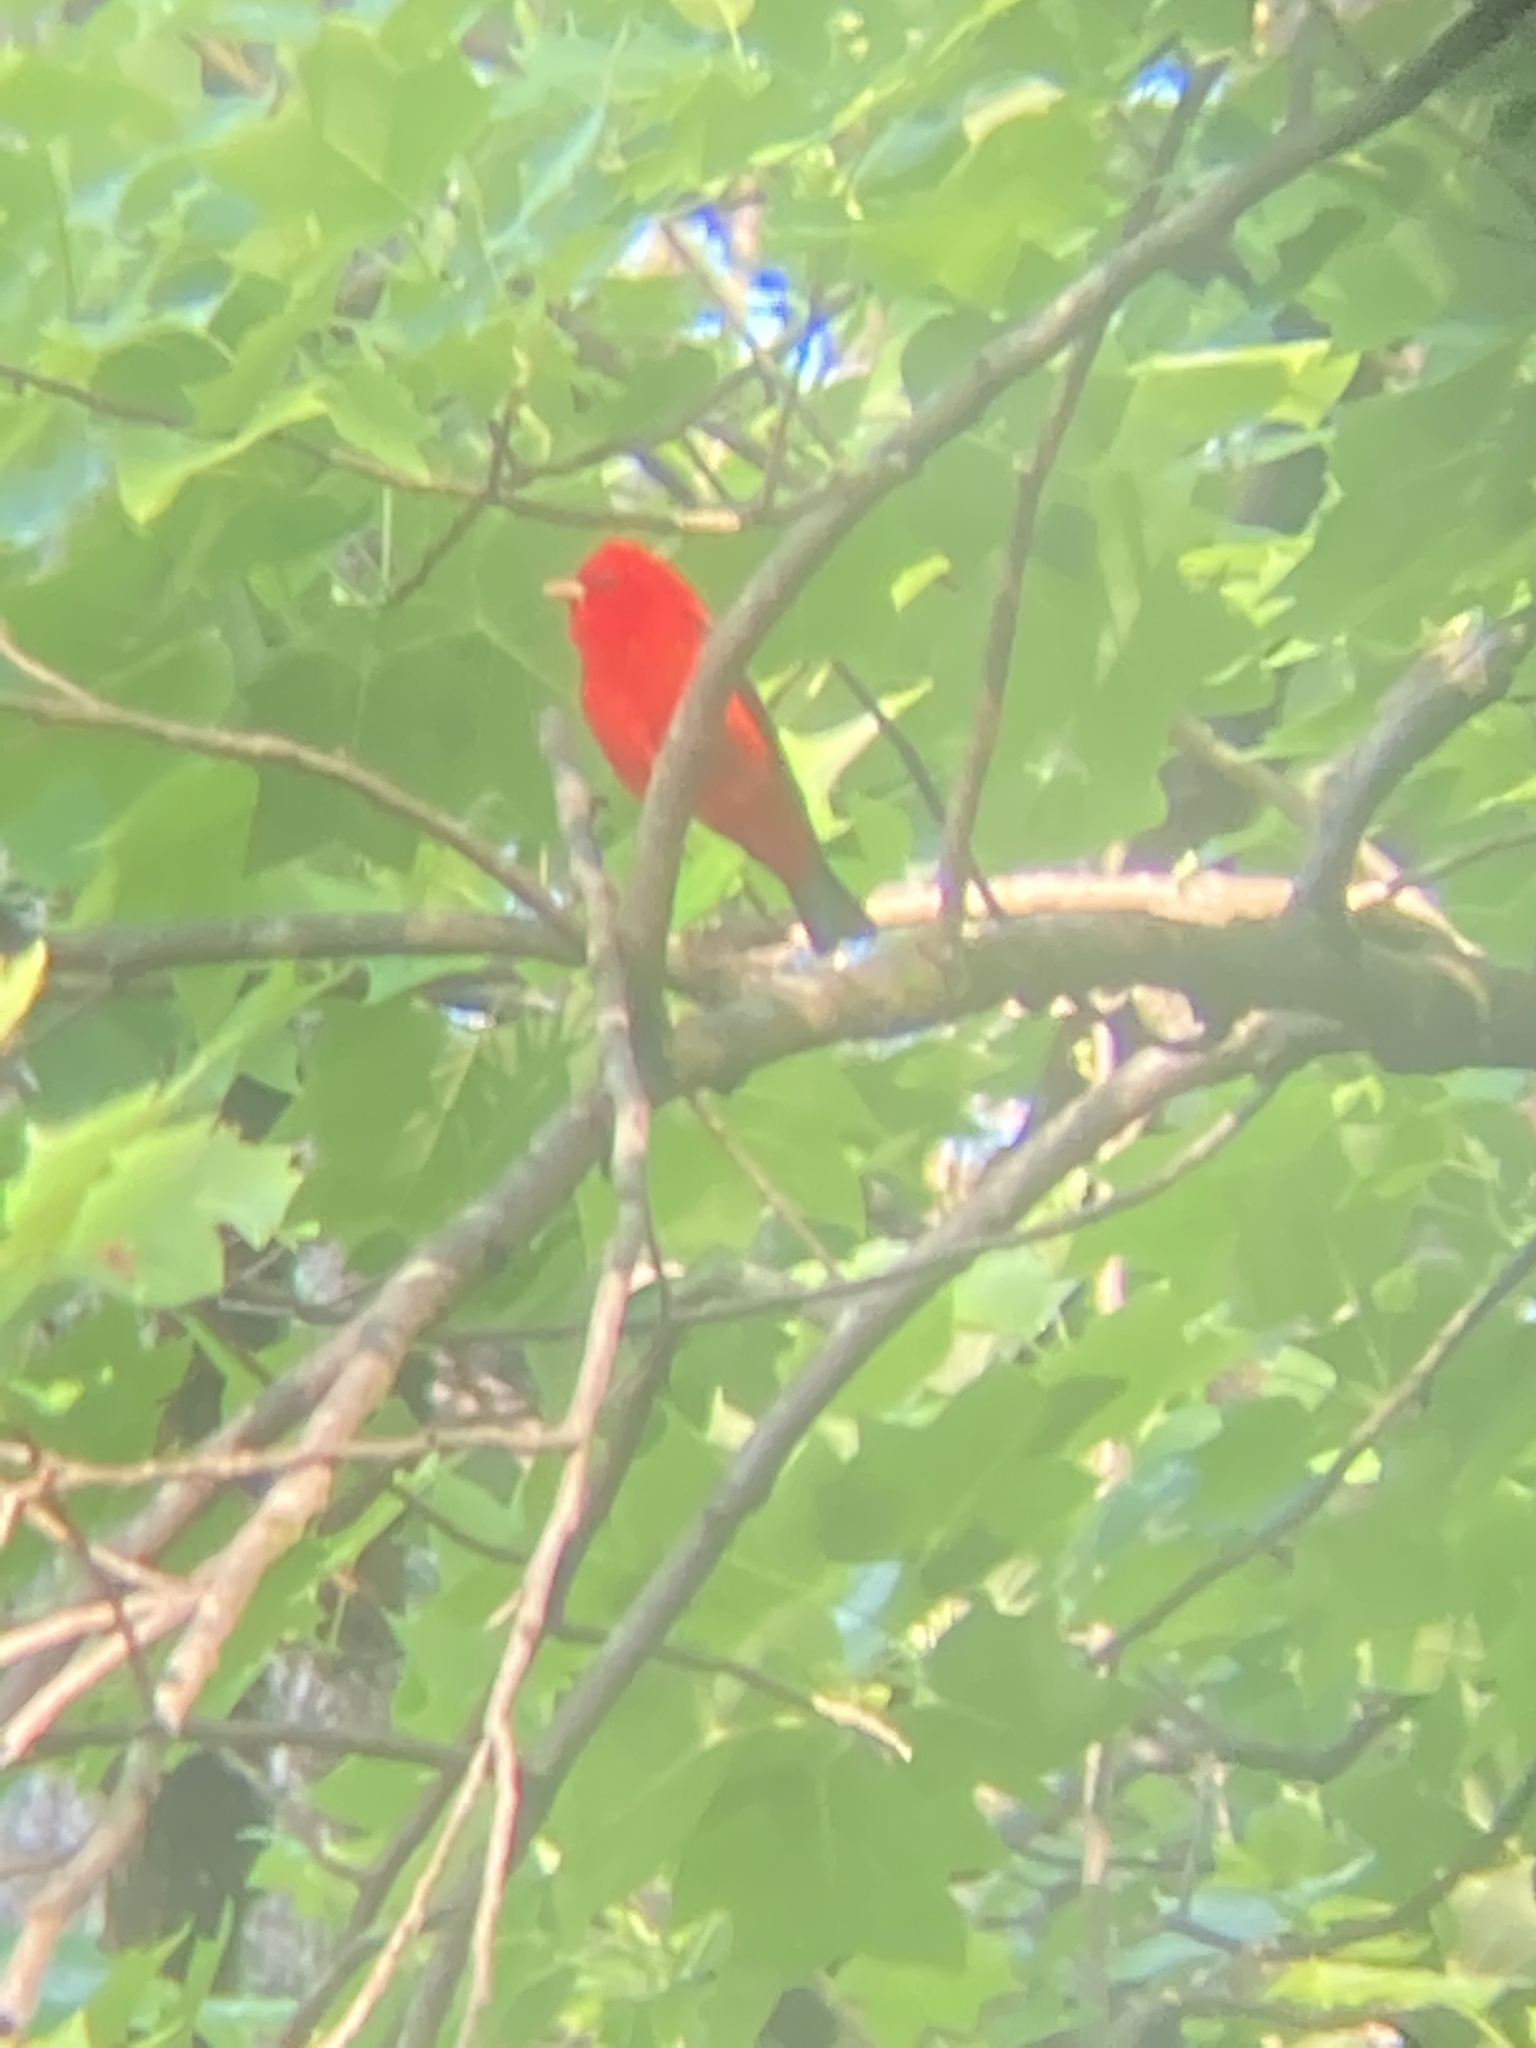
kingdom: Animalia
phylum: Chordata
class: Aves
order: Passeriformes
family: Cardinalidae
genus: Piranga
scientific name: Piranga olivacea
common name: Scarlet tanager
